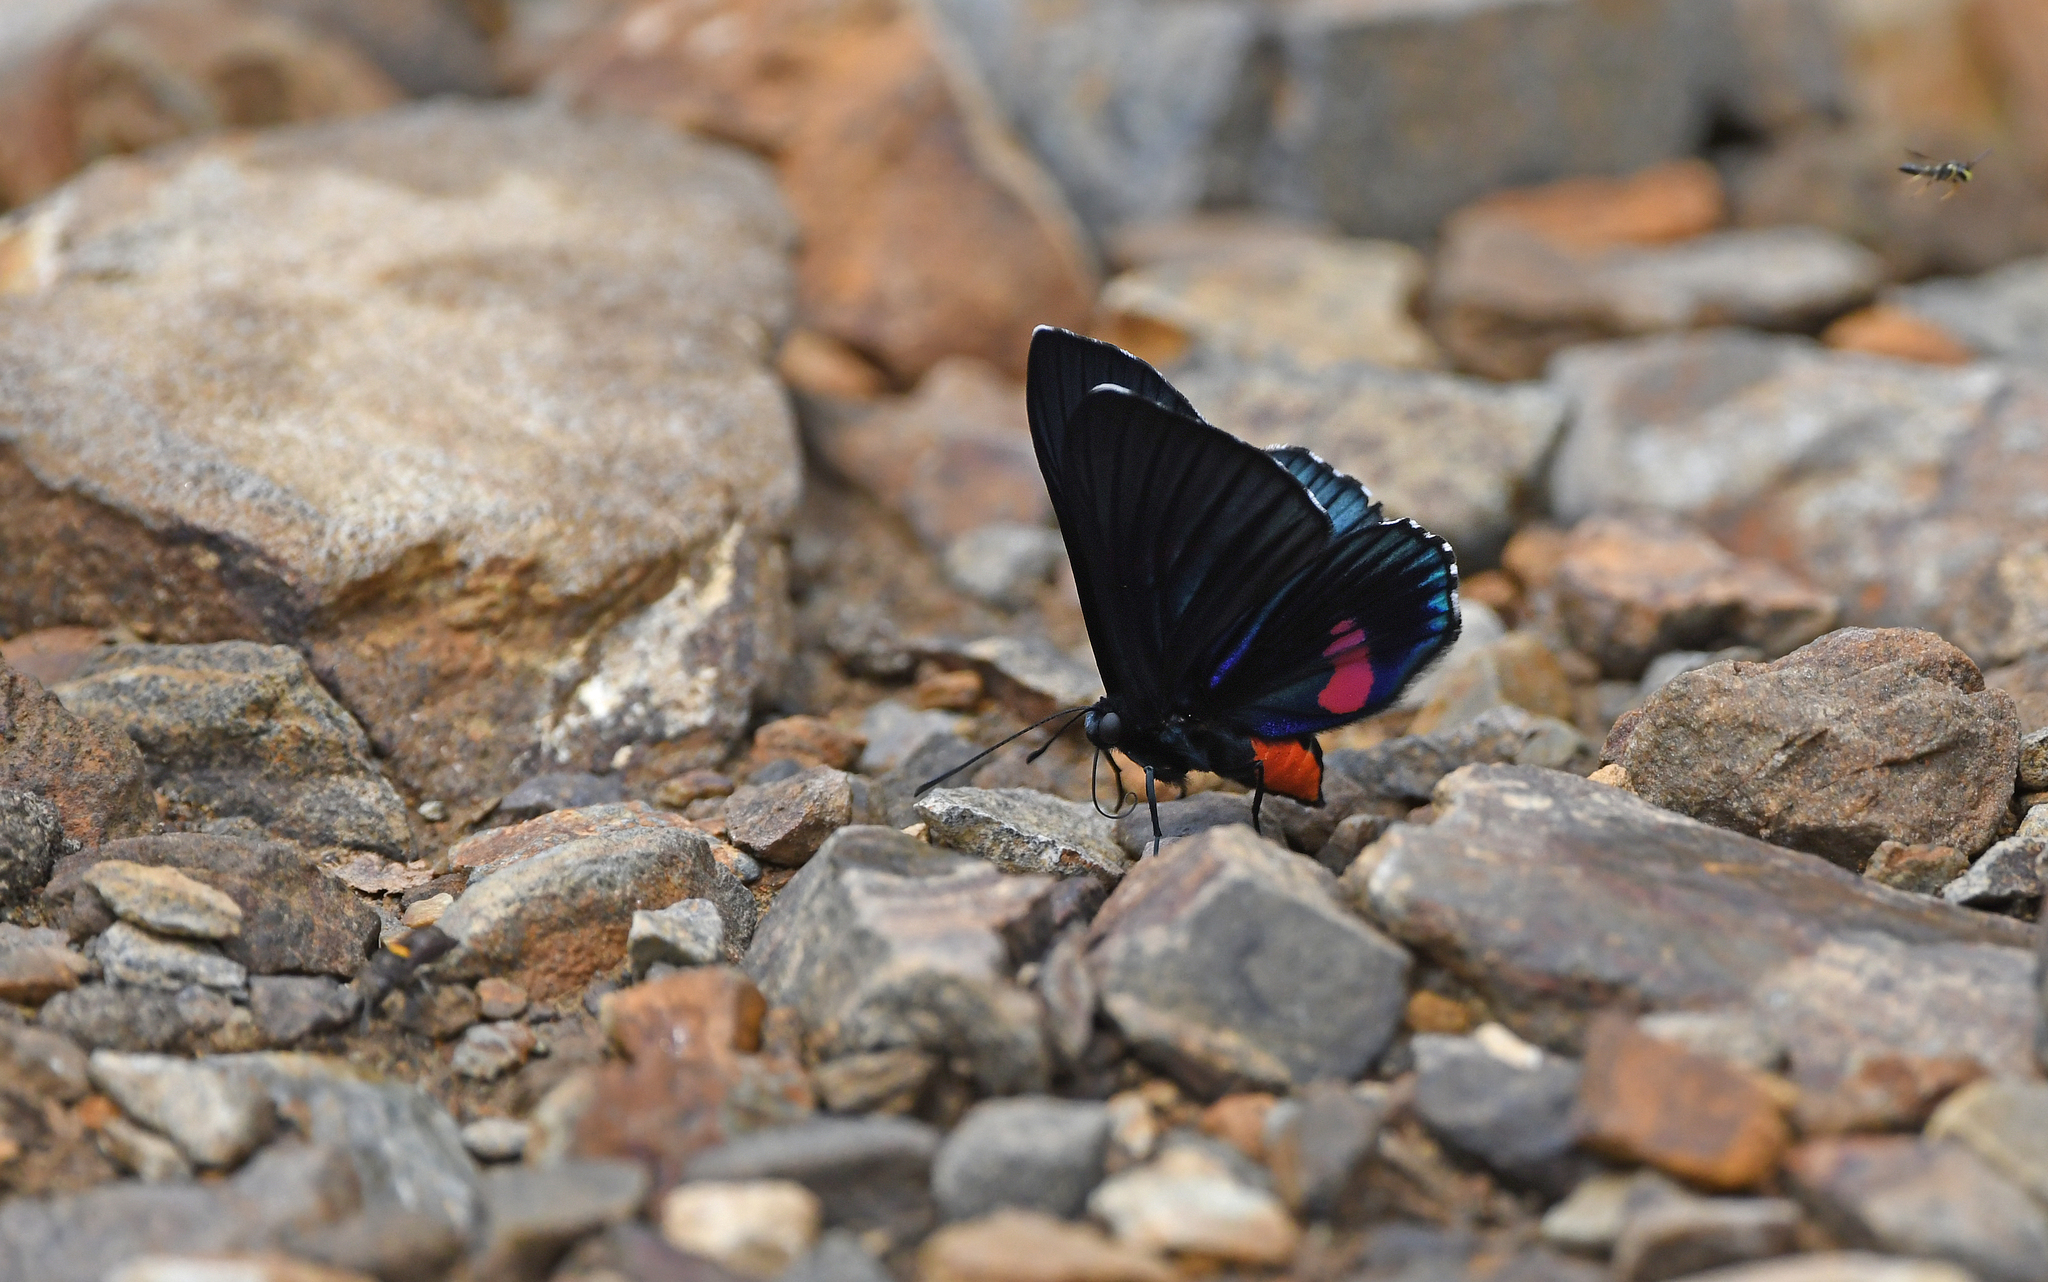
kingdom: Animalia
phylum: Arthropoda
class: Insecta
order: Lepidoptera
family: Lycaenidae
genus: Necyria
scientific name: Necyria bellona
